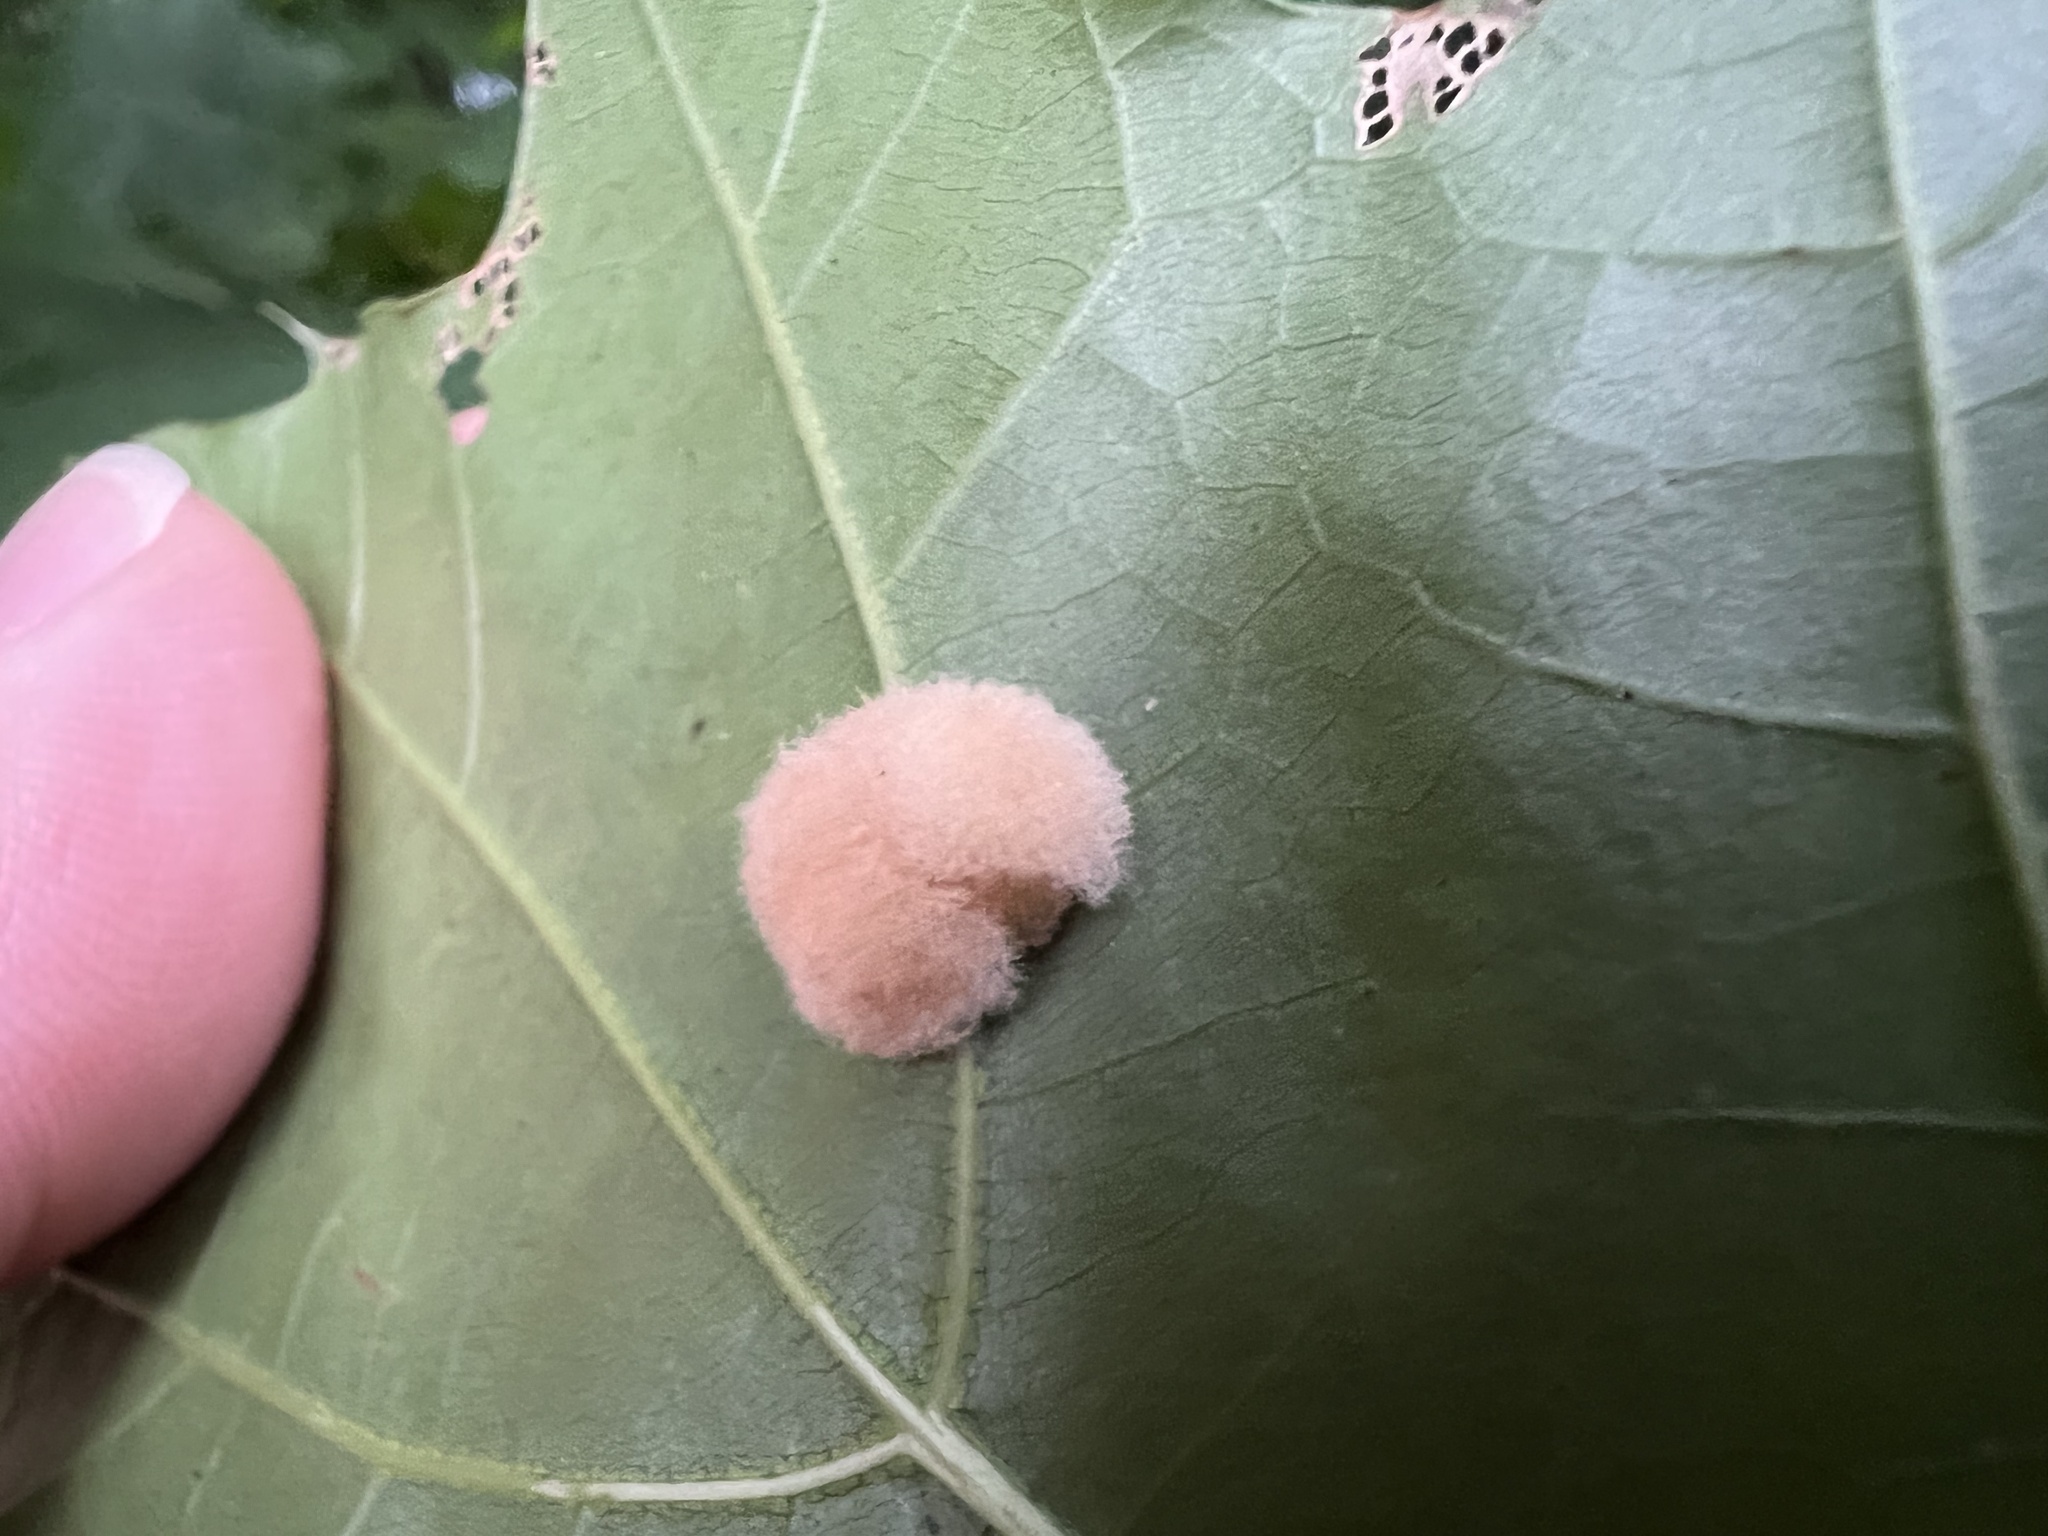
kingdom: Animalia
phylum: Arthropoda
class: Insecta
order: Hymenoptera
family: Cynipidae
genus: Callirhytis
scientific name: Callirhytis
